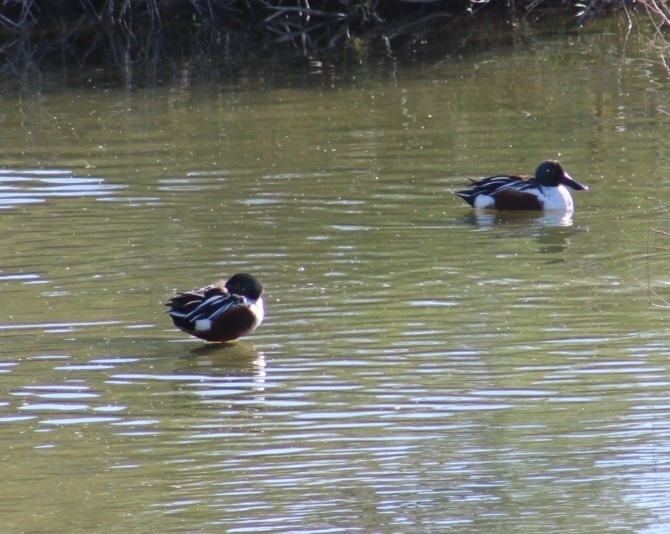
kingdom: Animalia
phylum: Chordata
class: Aves
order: Anseriformes
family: Anatidae
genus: Spatula
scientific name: Spatula clypeata
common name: Northern shoveler
